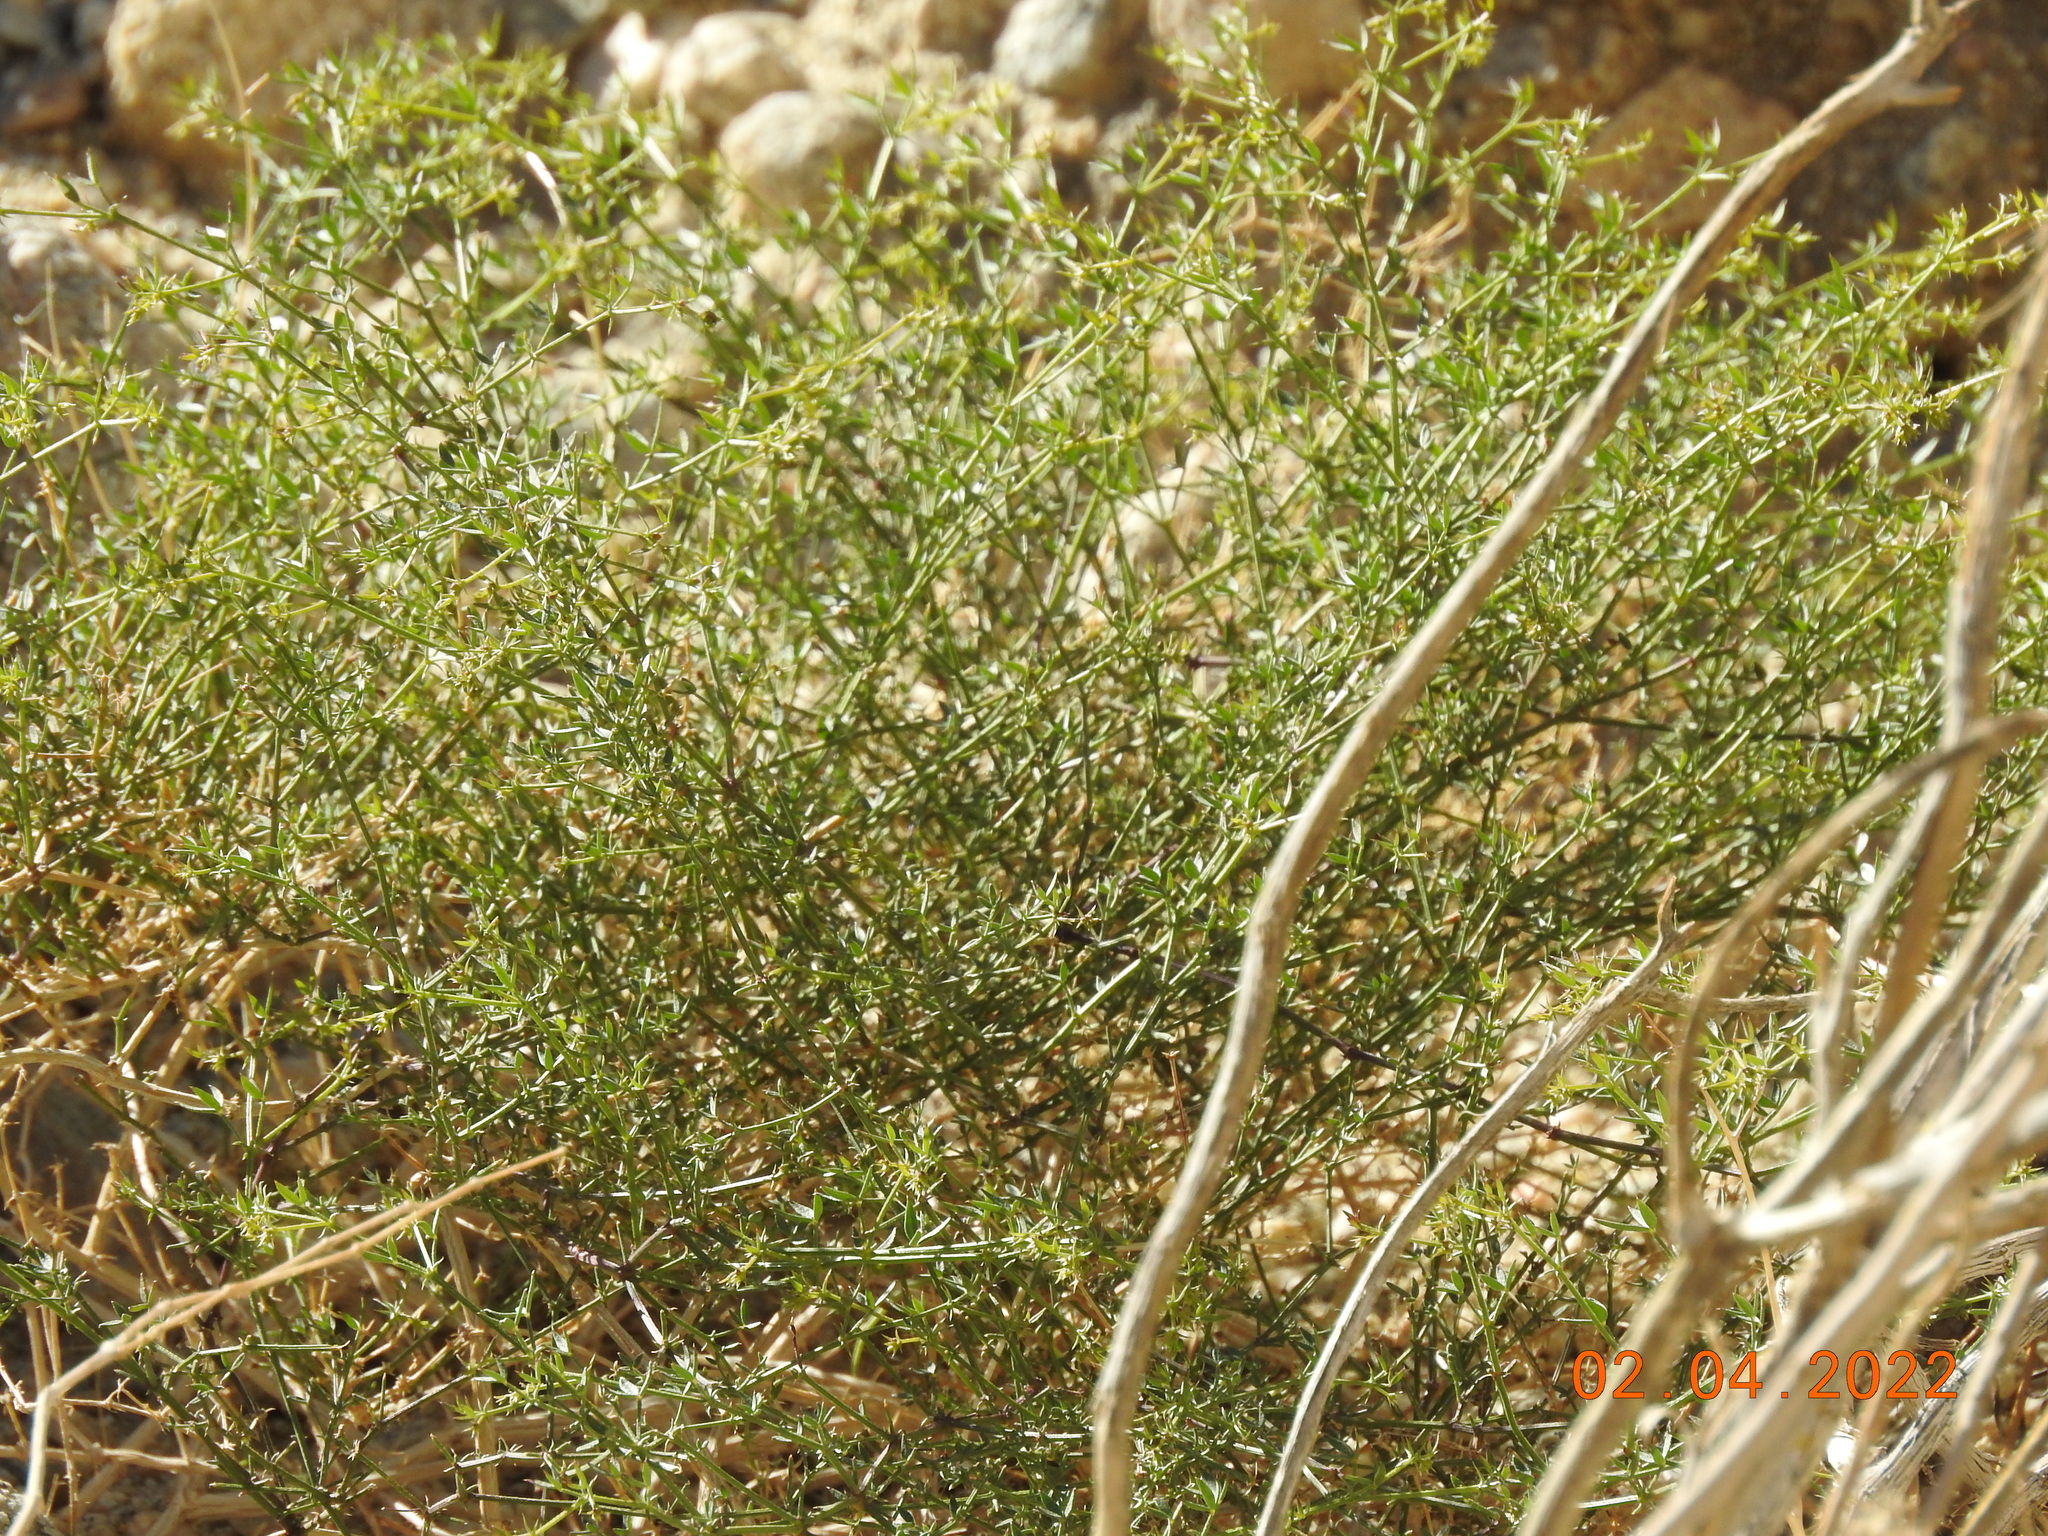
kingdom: Plantae
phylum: Tracheophyta
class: Magnoliopsida
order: Zygophyllales
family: Zygophyllaceae
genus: Fagonia
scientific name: Fagonia laevis
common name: California fagonbush
